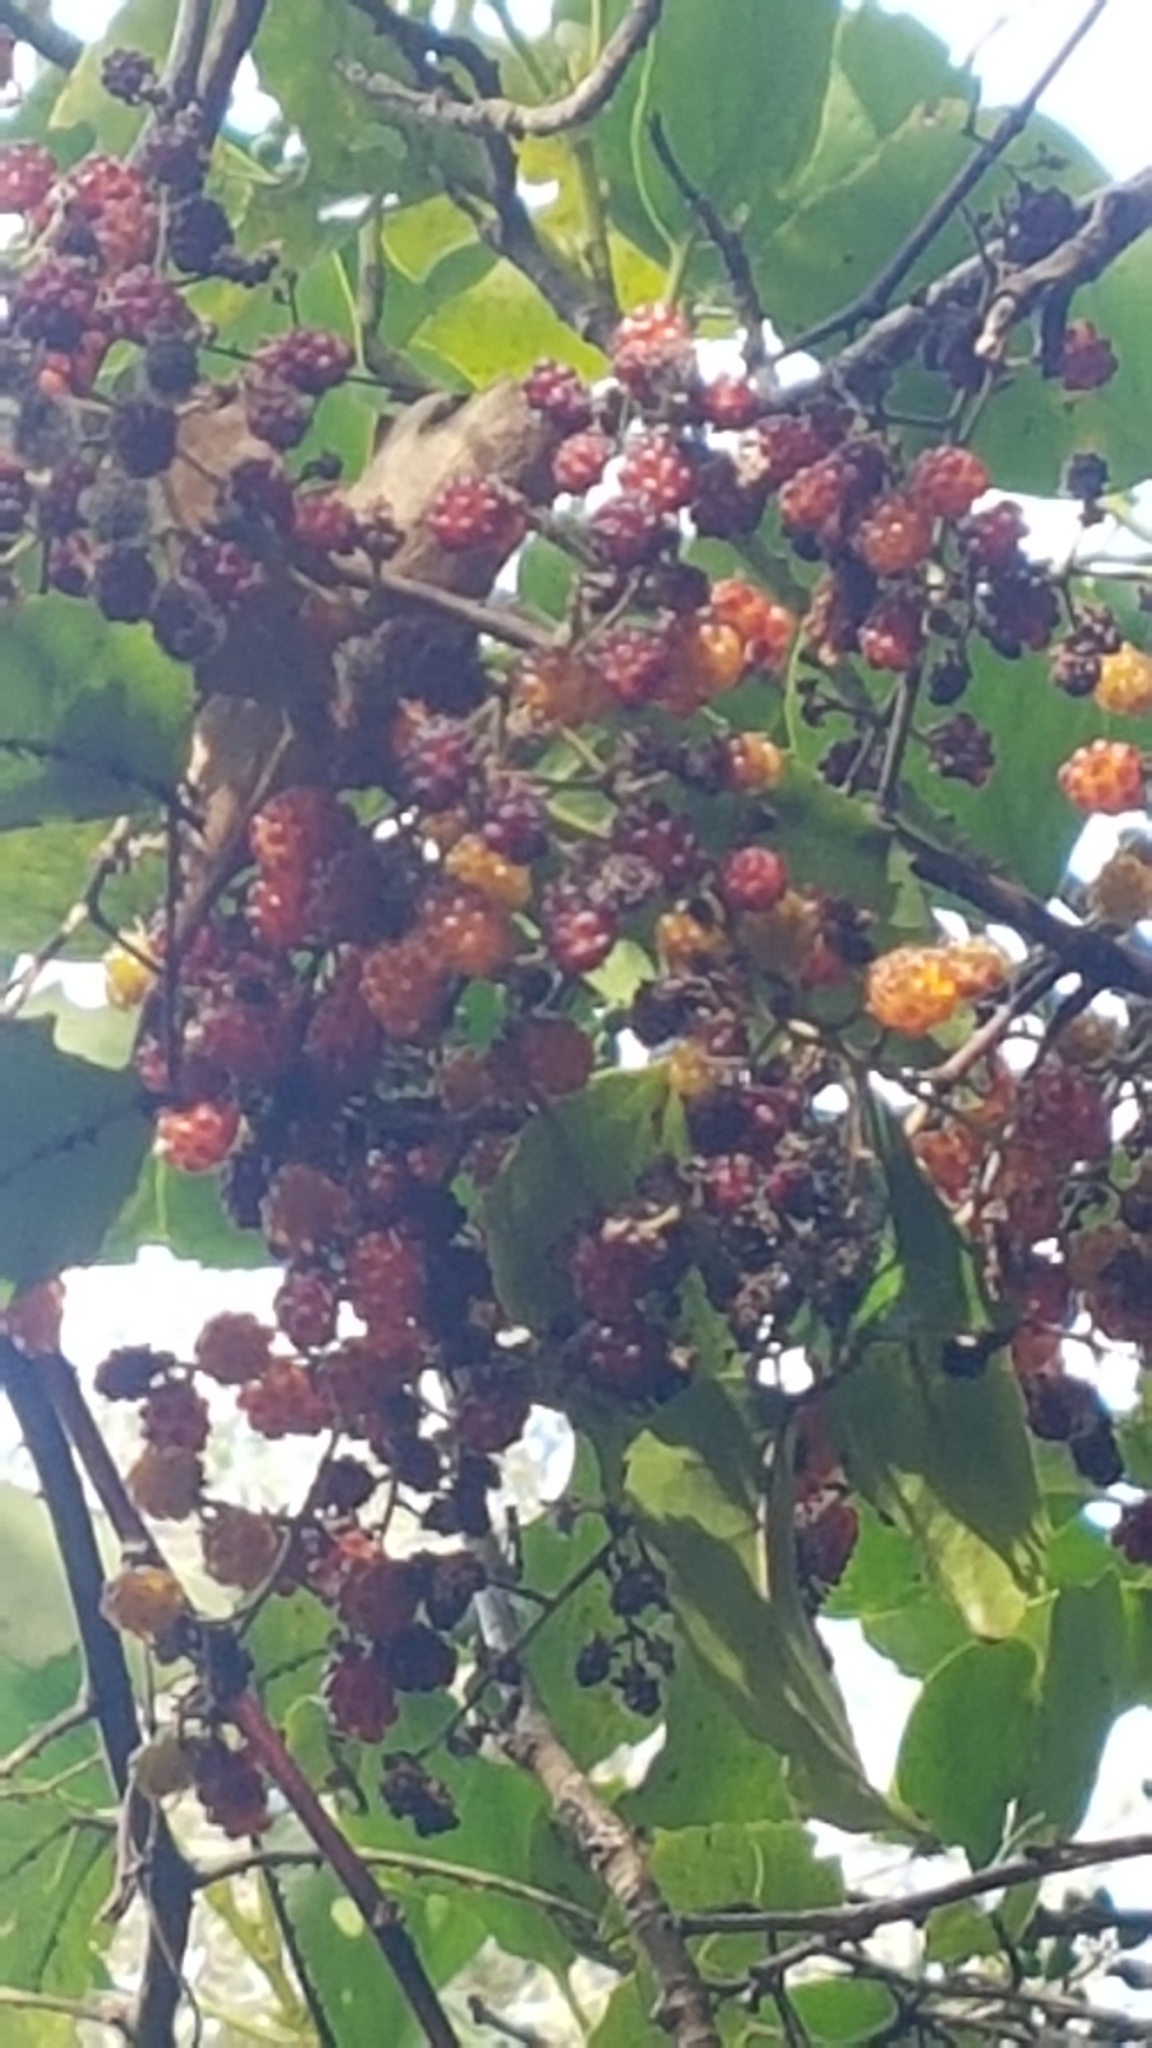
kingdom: Plantae
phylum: Tracheophyta
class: Magnoliopsida
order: Rosales
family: Rosaceae
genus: Rubus
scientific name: Rubus cissoides
